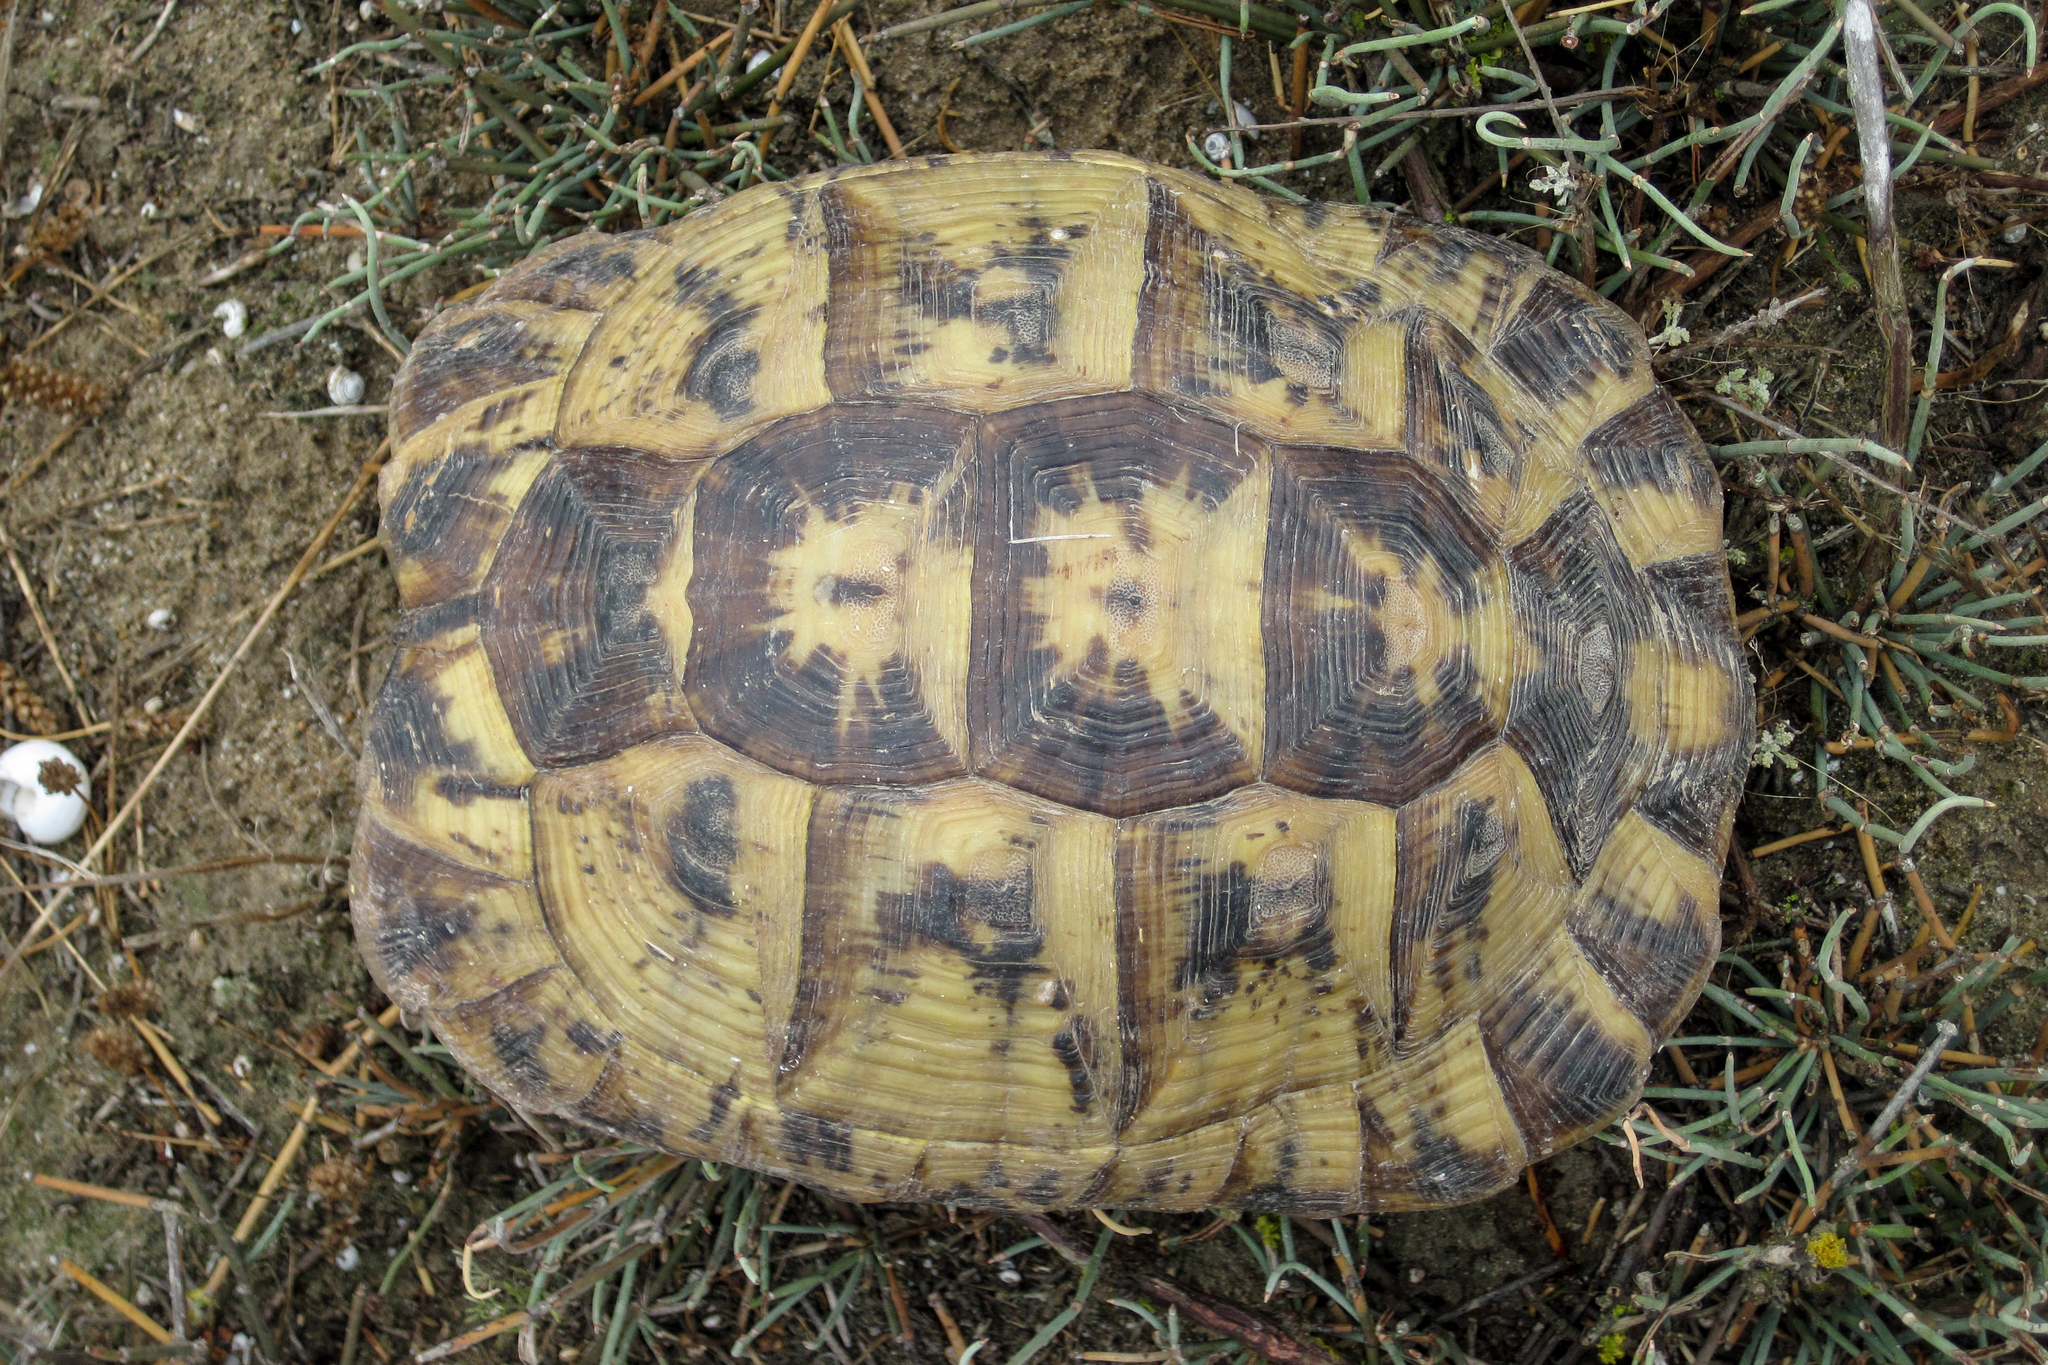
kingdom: Animalia
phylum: Chordata
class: Testudines
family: Testudinidae
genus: Testudo
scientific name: Testudo graeca
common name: Common tortoise
